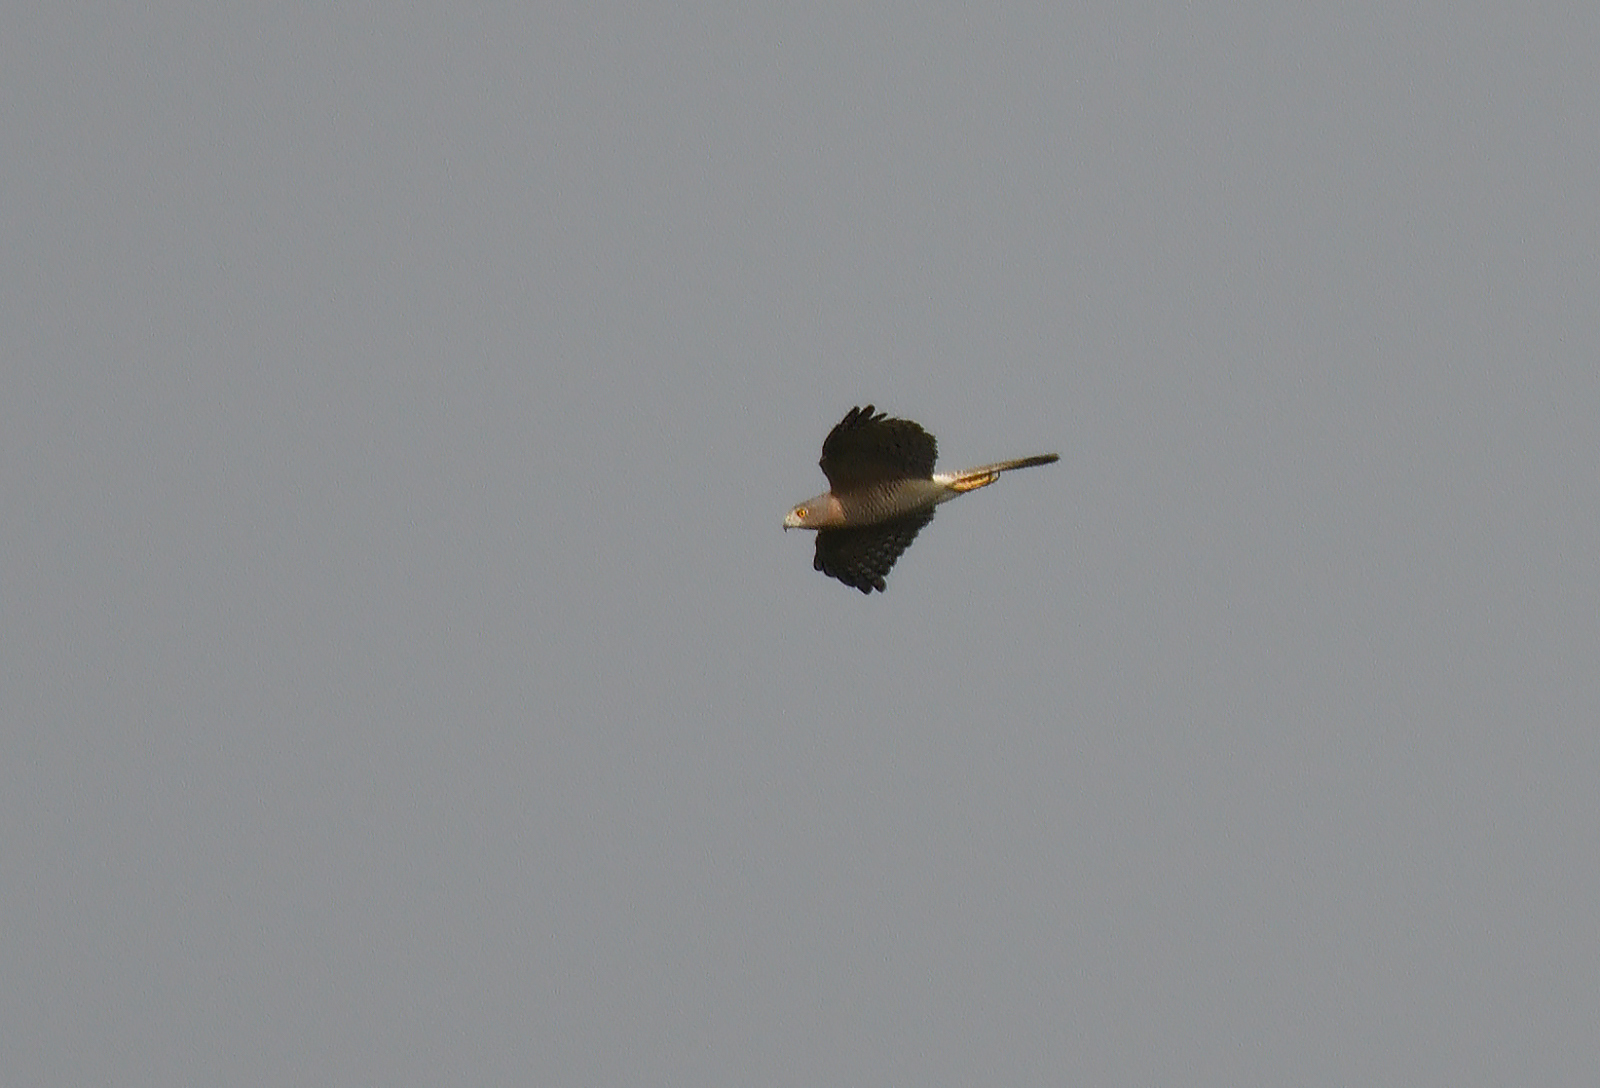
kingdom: Animalia
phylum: Chordata
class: Aves
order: Accipitriformes
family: Accipitridae
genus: Accipiter
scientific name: Accipiter badius
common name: Shikra
